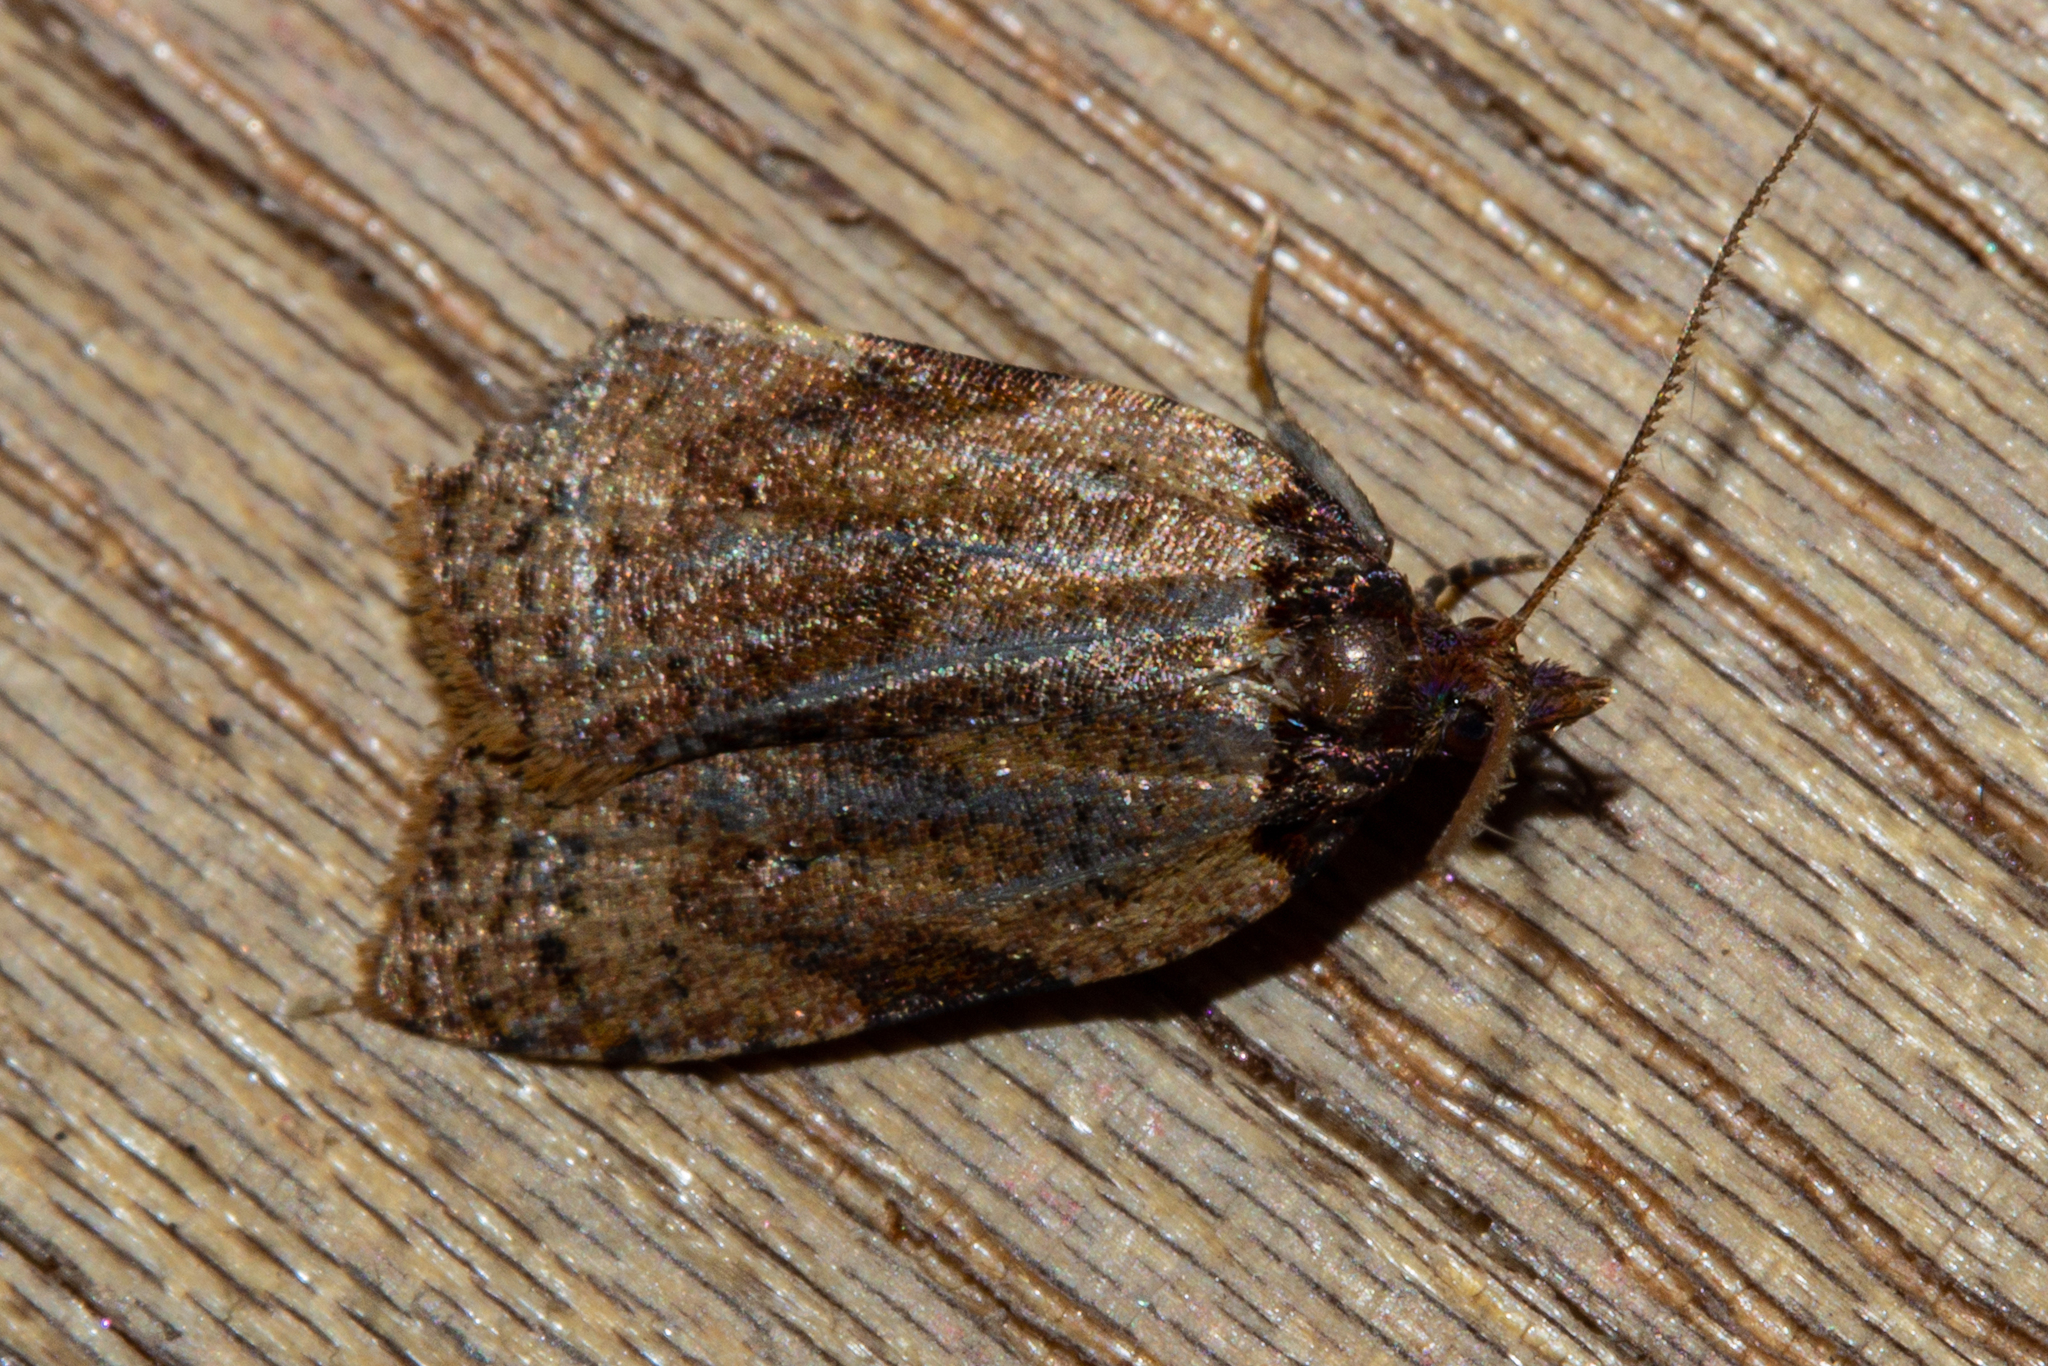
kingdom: Animalia
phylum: Arthropoda
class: Insecta
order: Lepidoptera
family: Tortricidae
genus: Cnephasia
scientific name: Cnephasia microbathra
